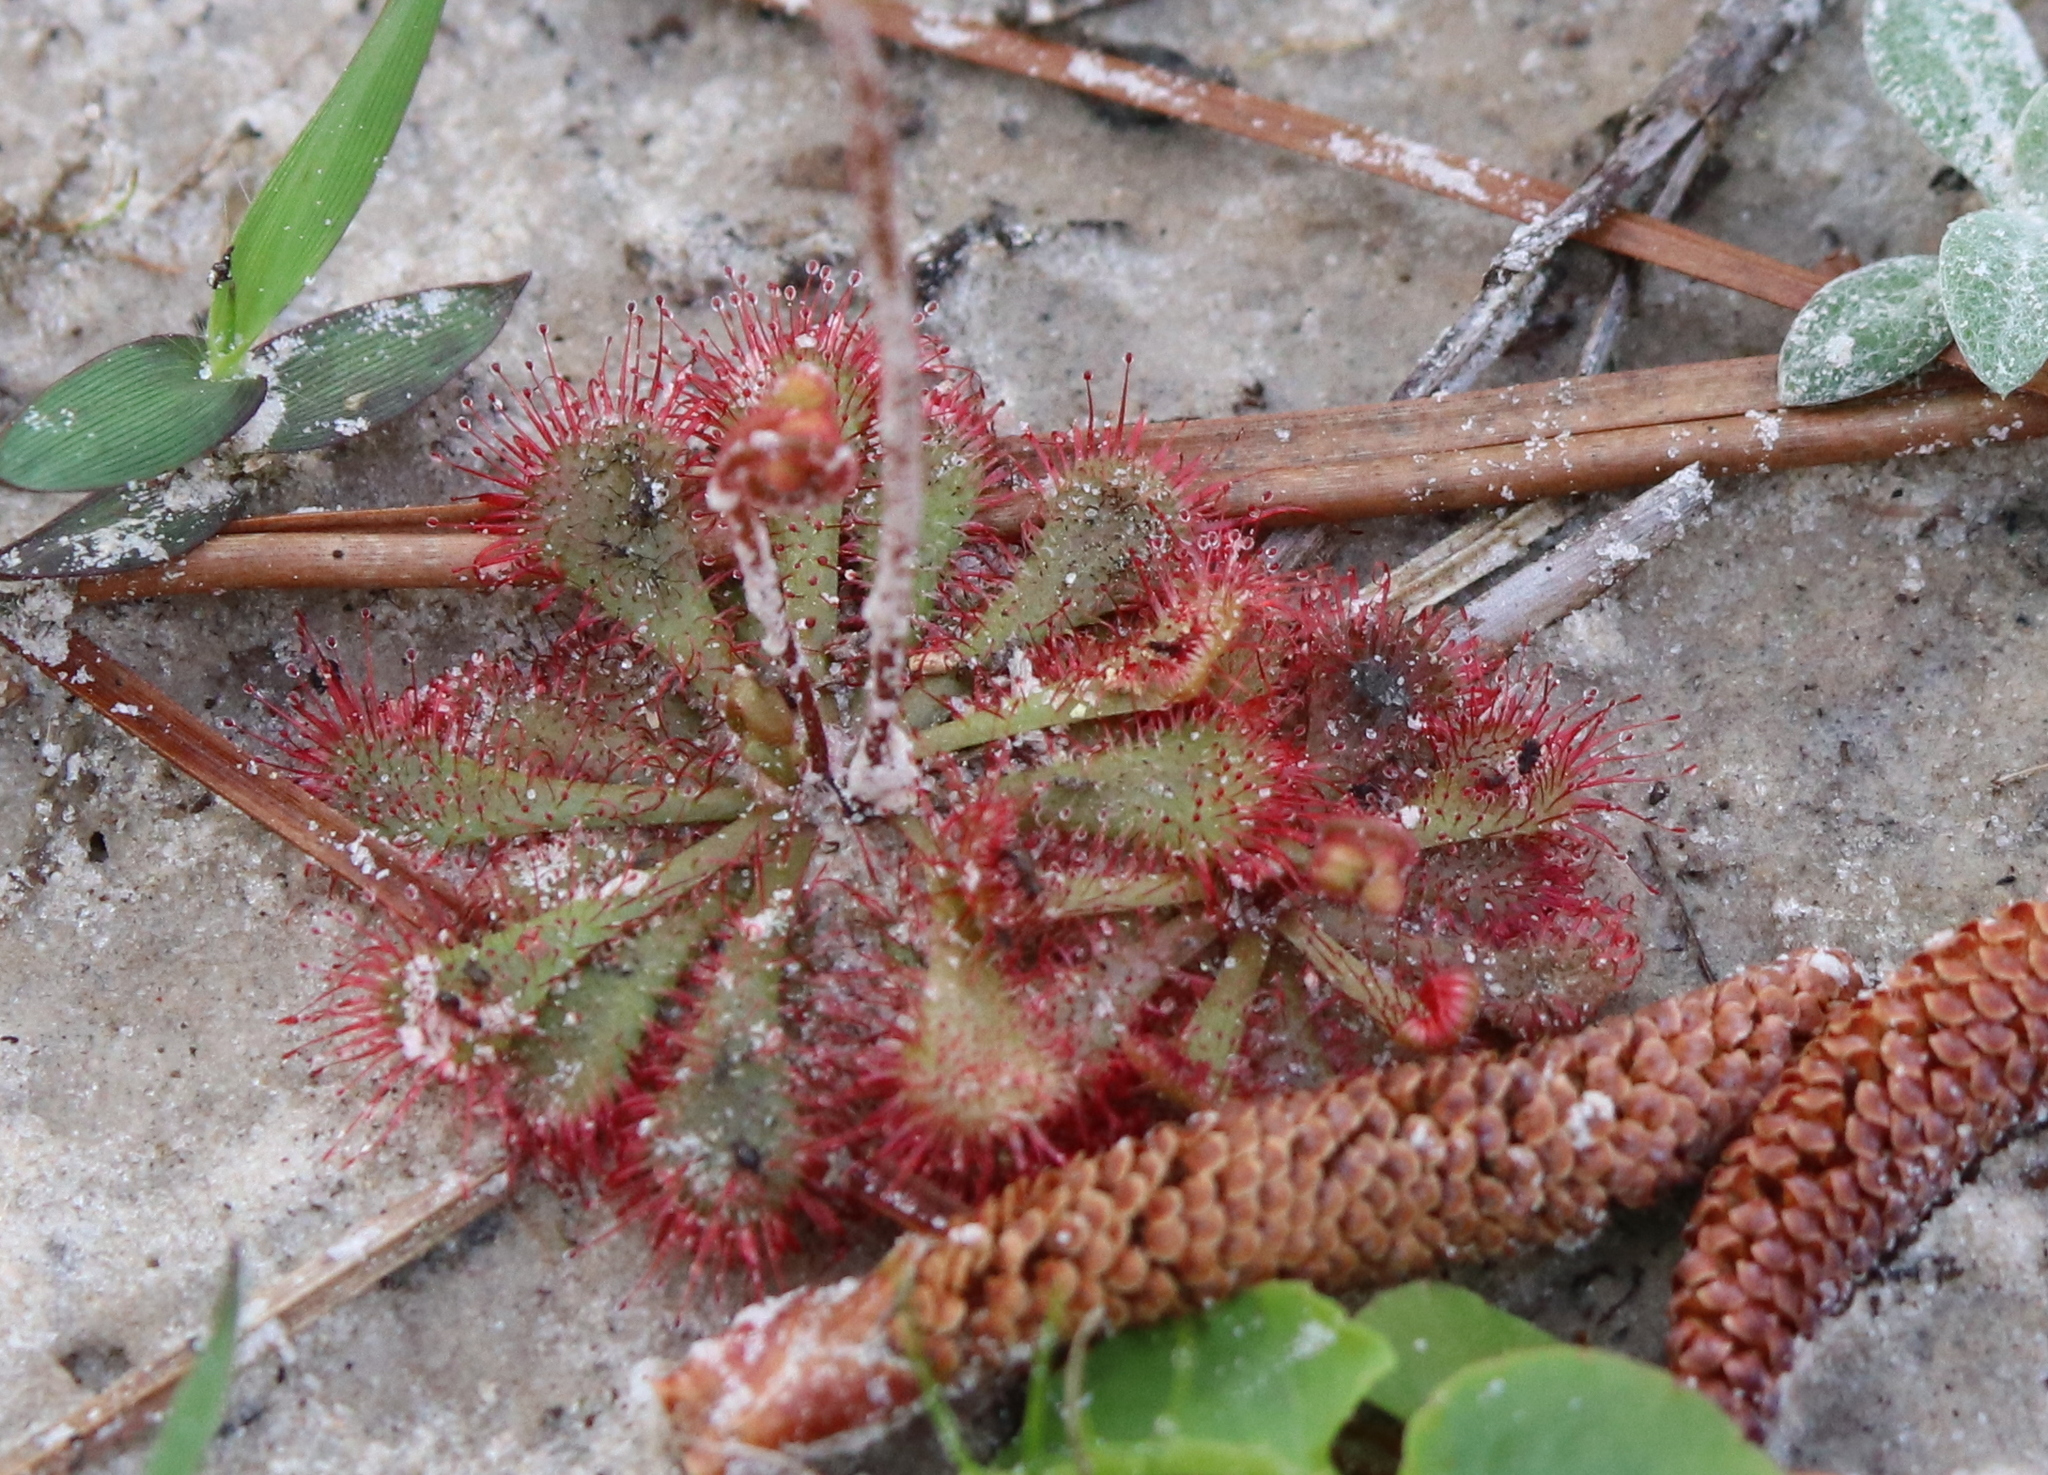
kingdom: Plantae
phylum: Tracheophyta
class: Magnoliopsida
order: Caryophyllales
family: Droseraceae
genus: Drosera
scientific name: Drosera brevifolia
